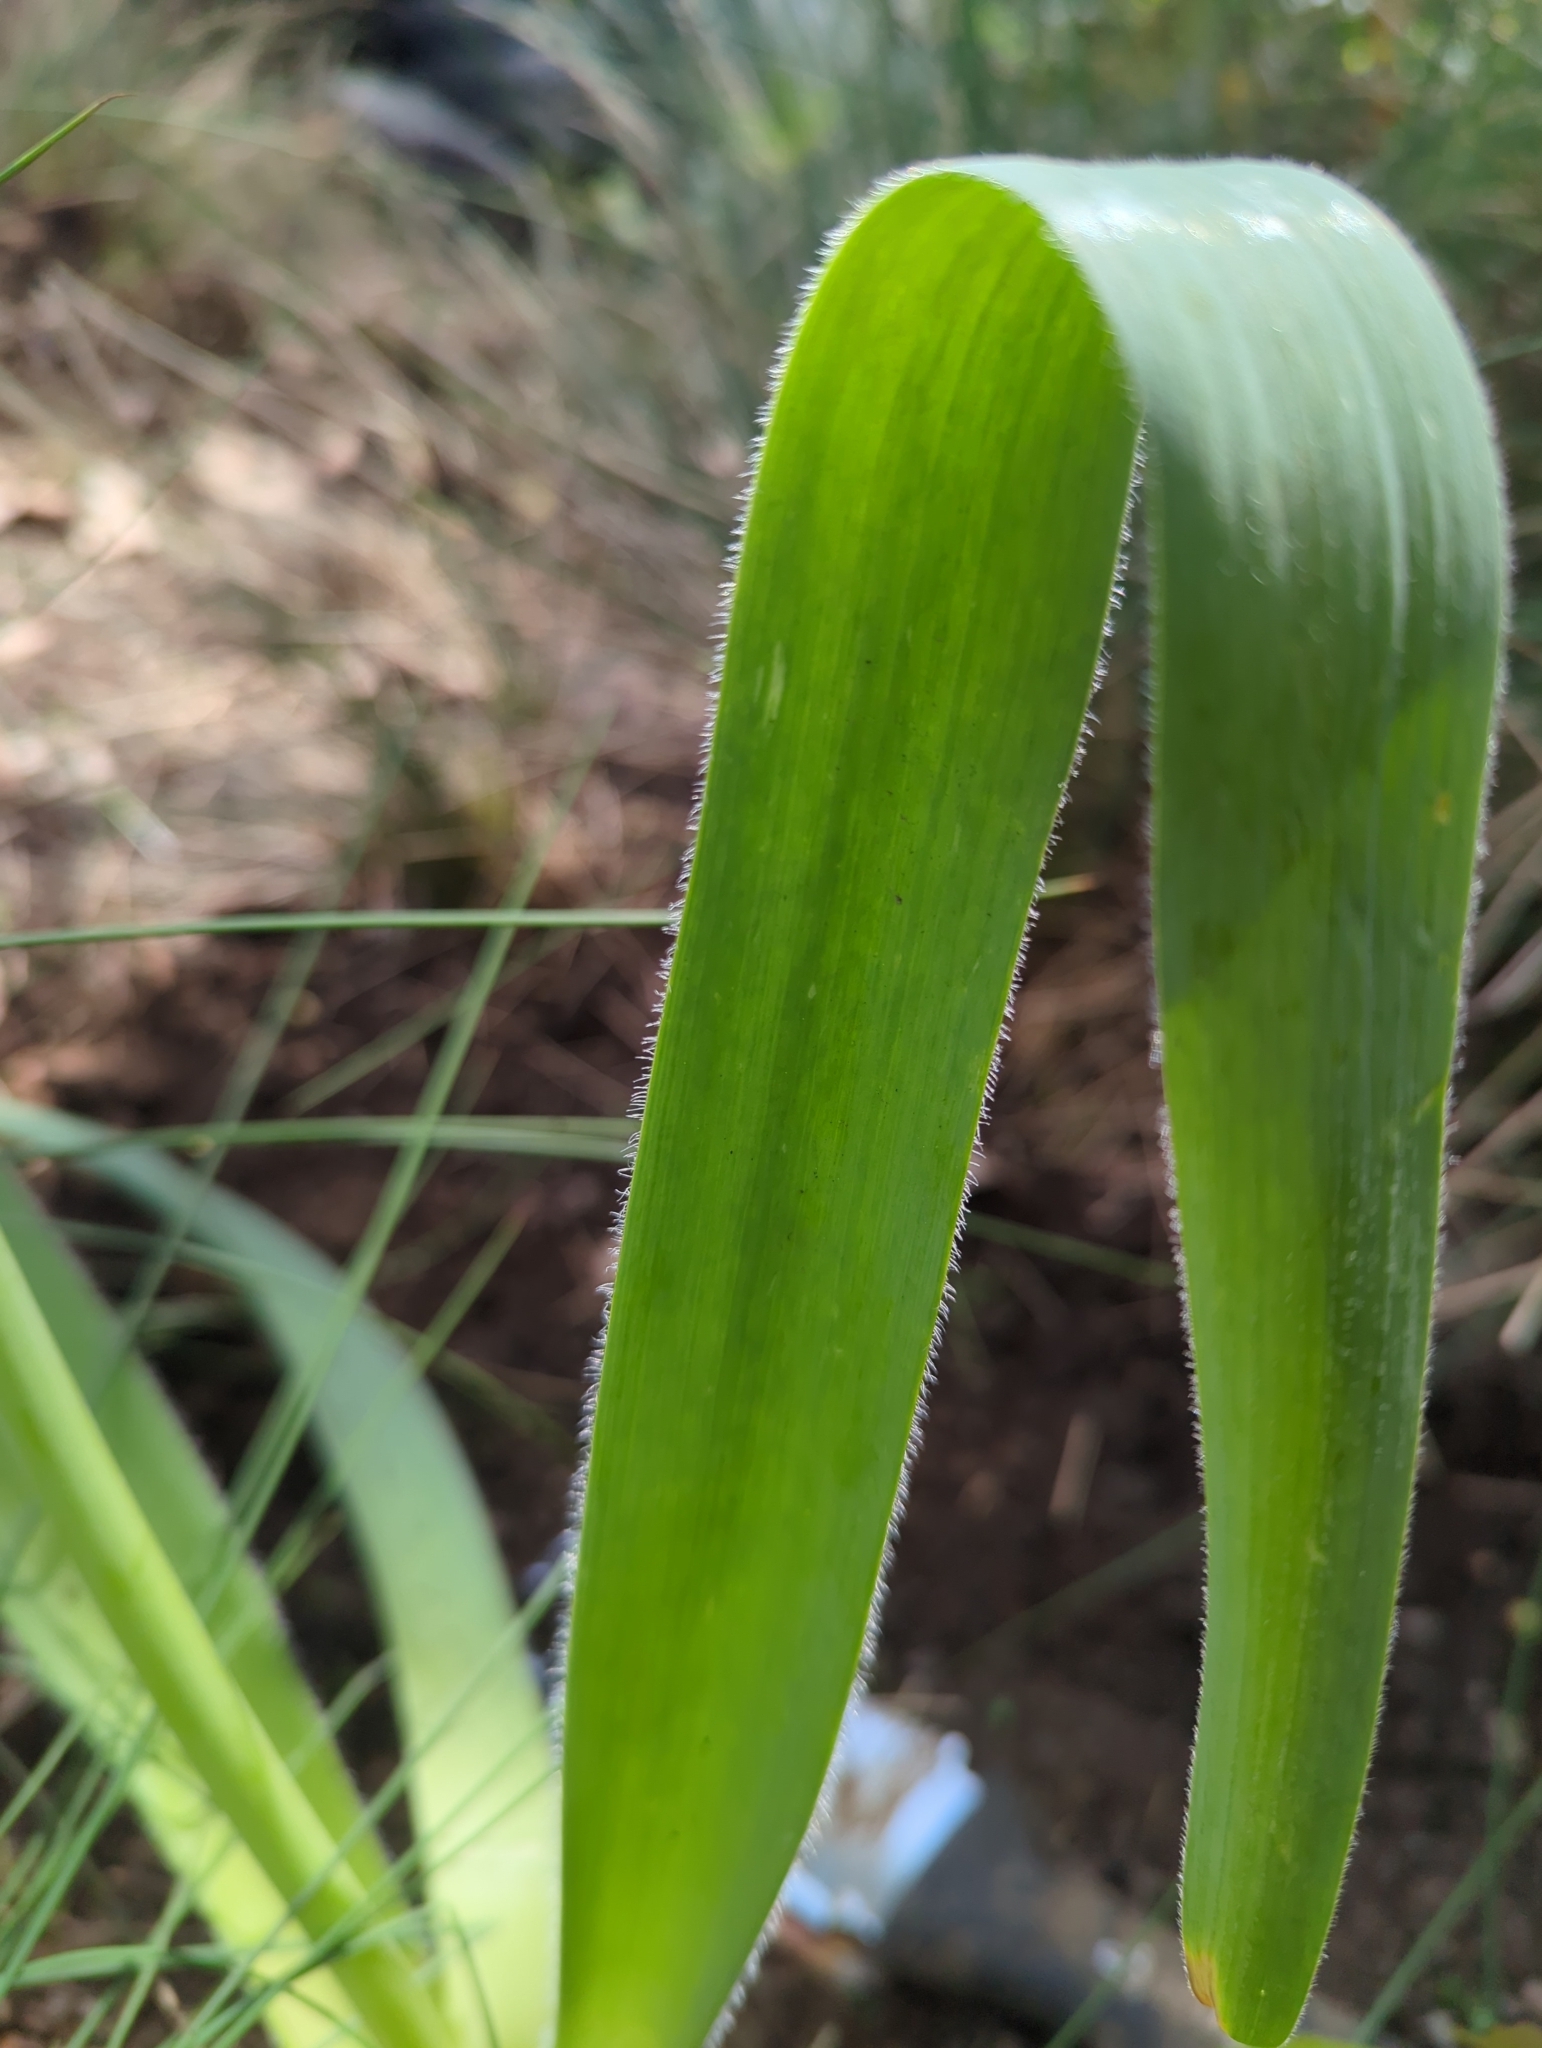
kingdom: Plantae
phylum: Tracheophyta
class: Liliopsida
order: Asparagales
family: Amaryllidaceae
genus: Allium
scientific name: Allium cristophii
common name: Persian onion
